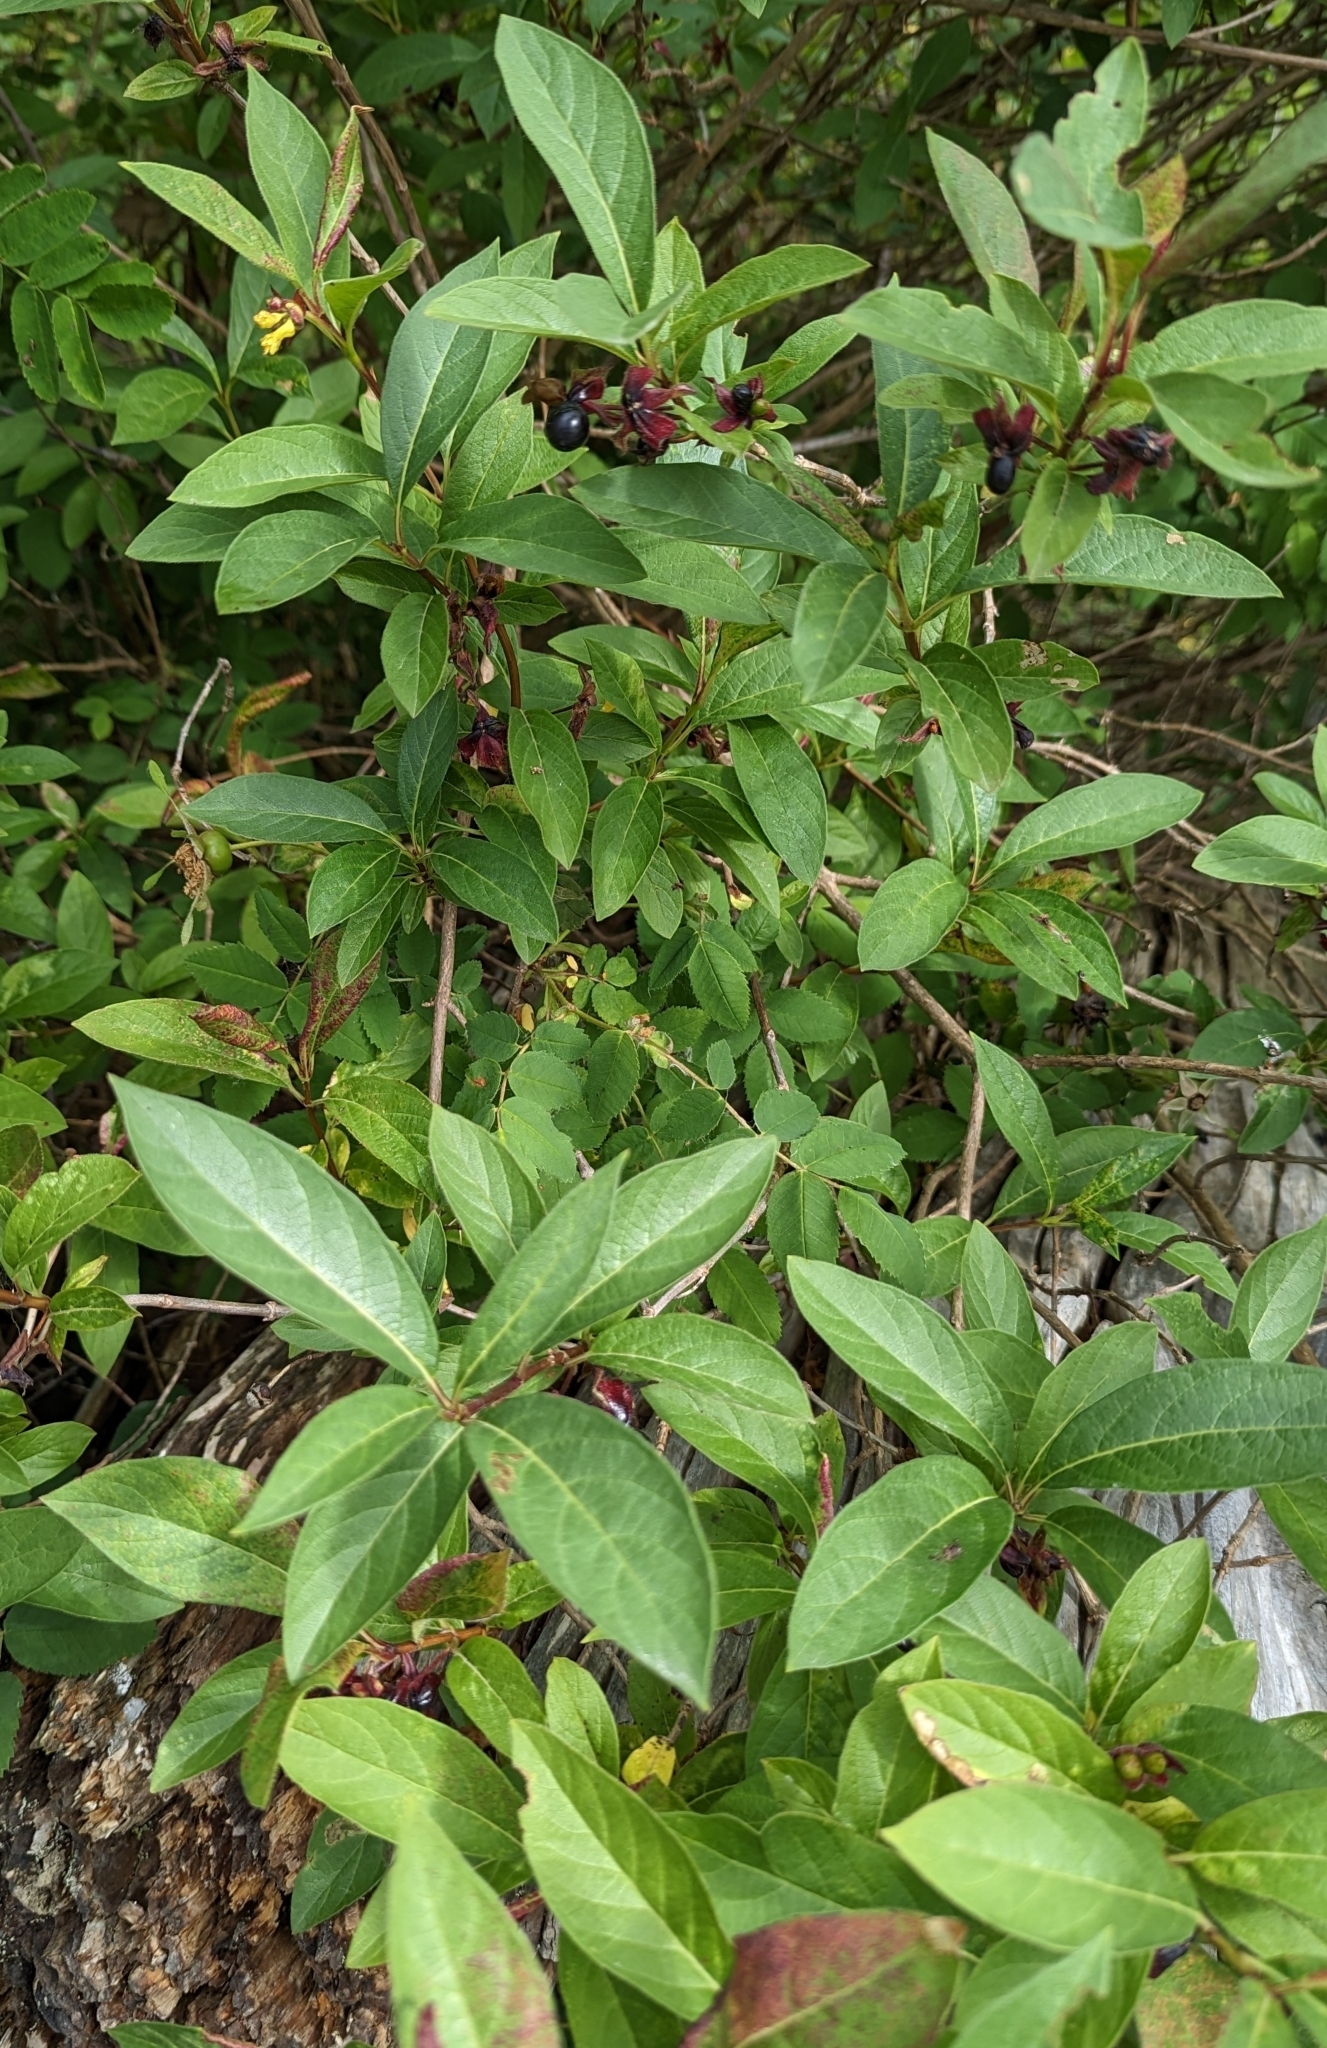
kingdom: Plantae
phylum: Tracheophyta
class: Magnoliopsida
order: Dipsacales
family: Caprifoliaceae
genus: Lonicera
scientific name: Lonicera involucrata
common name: Californian honeysuckle
